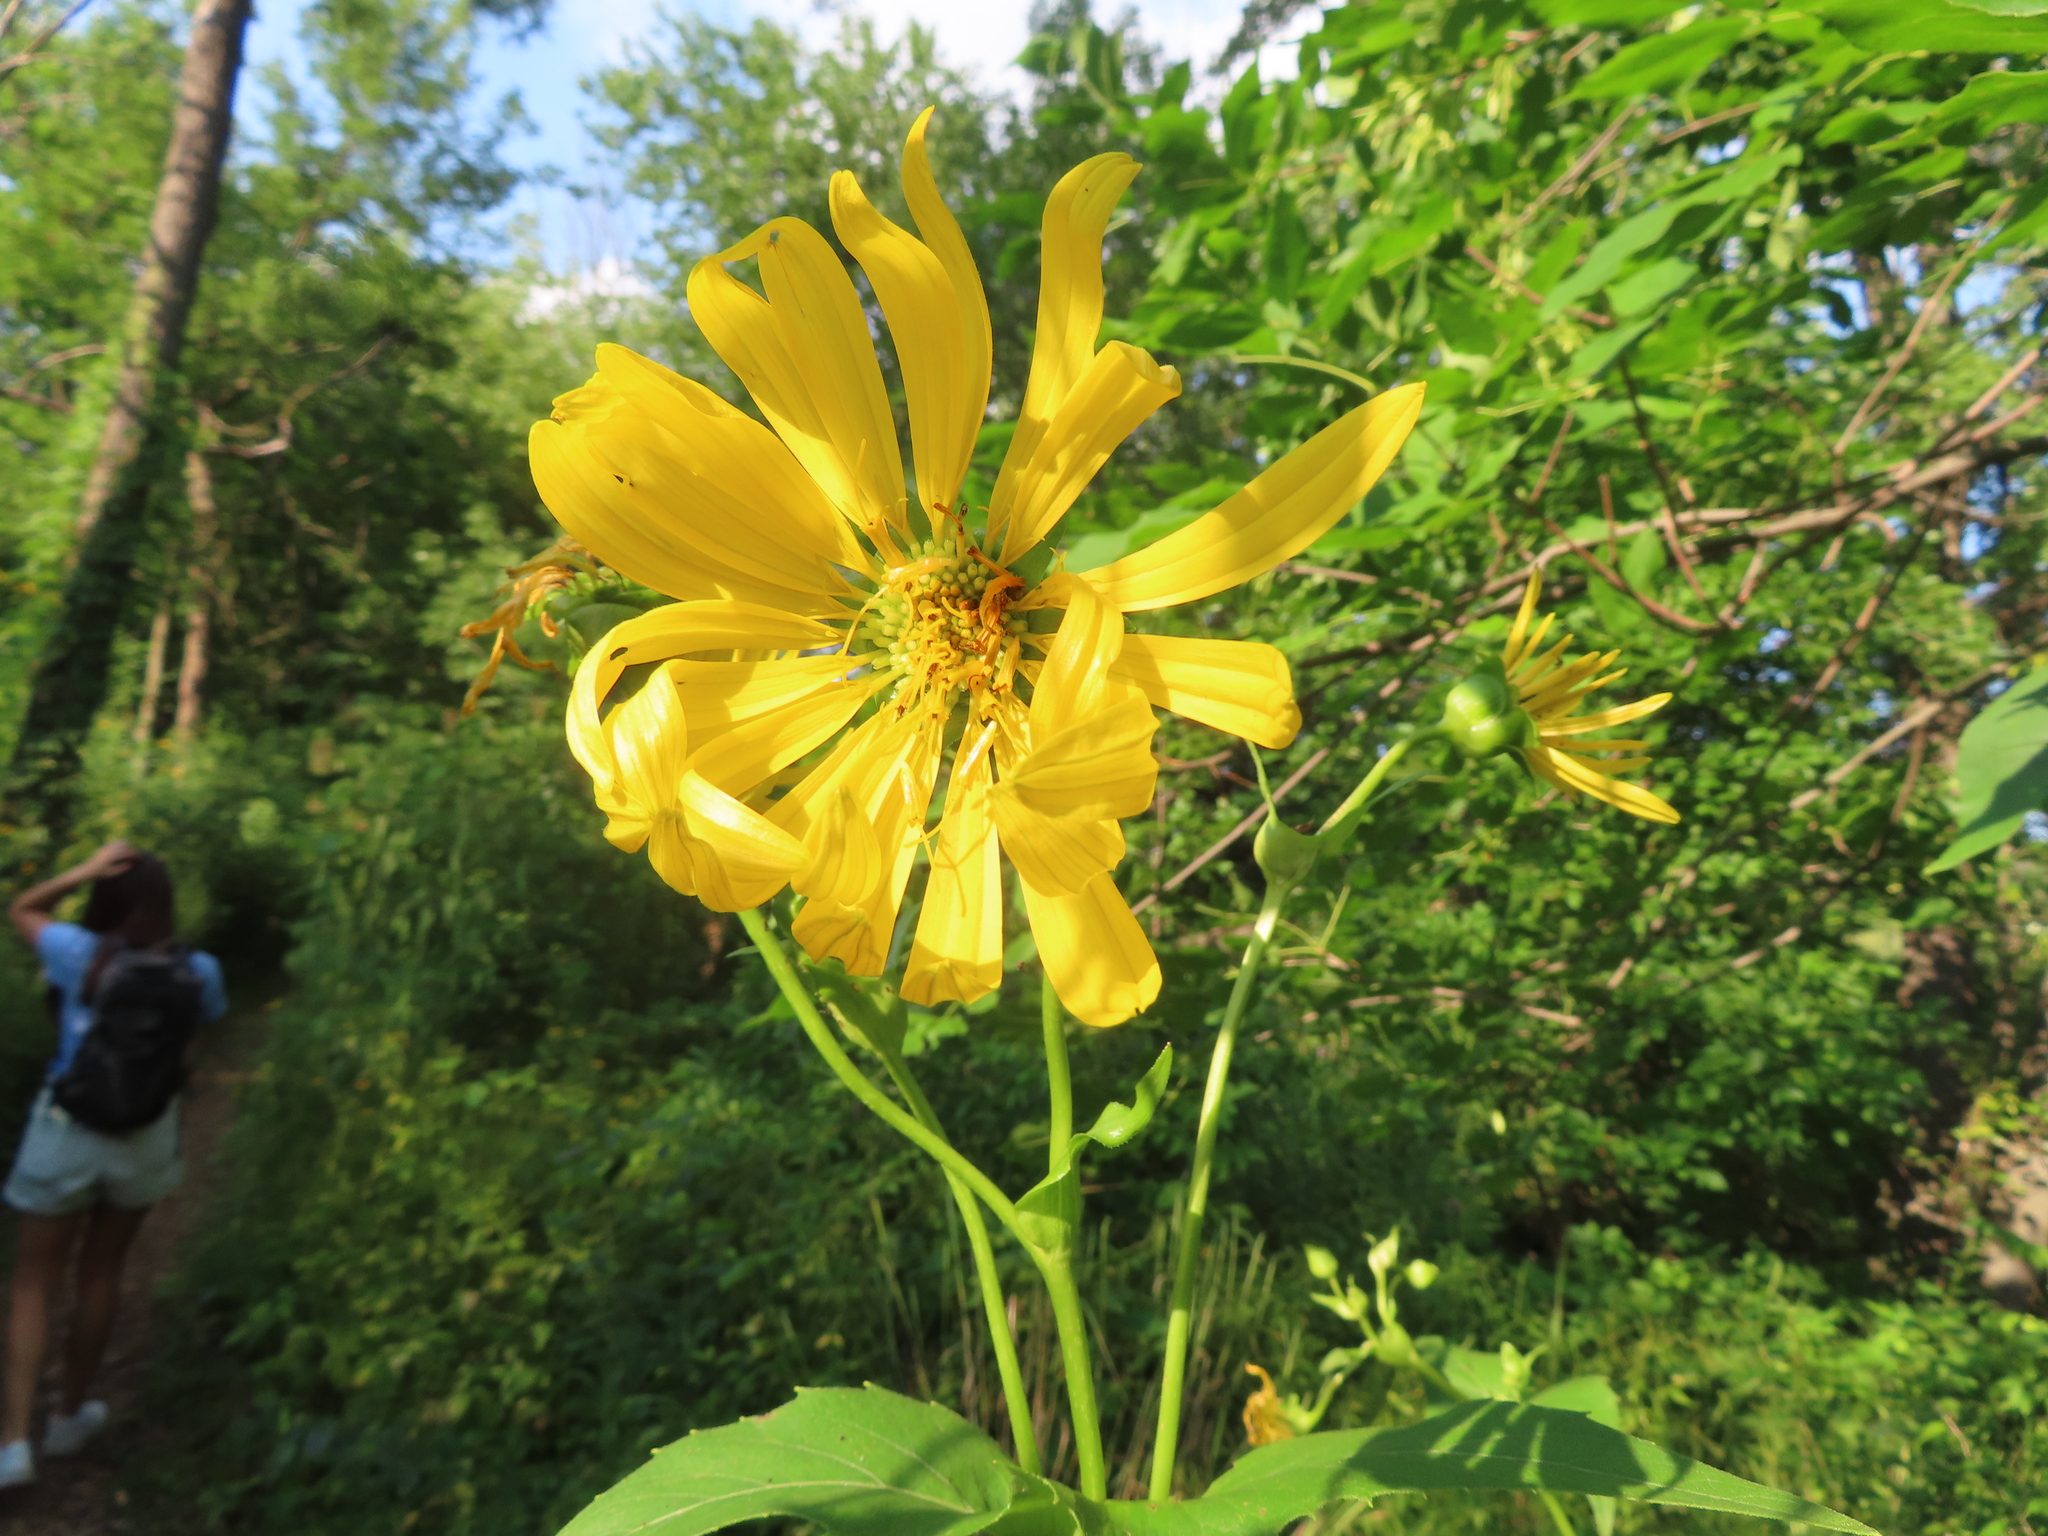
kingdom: Plantae
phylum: Tracheophyta
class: Magnoliopsida
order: Asterales
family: Asteraceae
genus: Silphium
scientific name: Silphium perfoliatum
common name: Cup-plant
